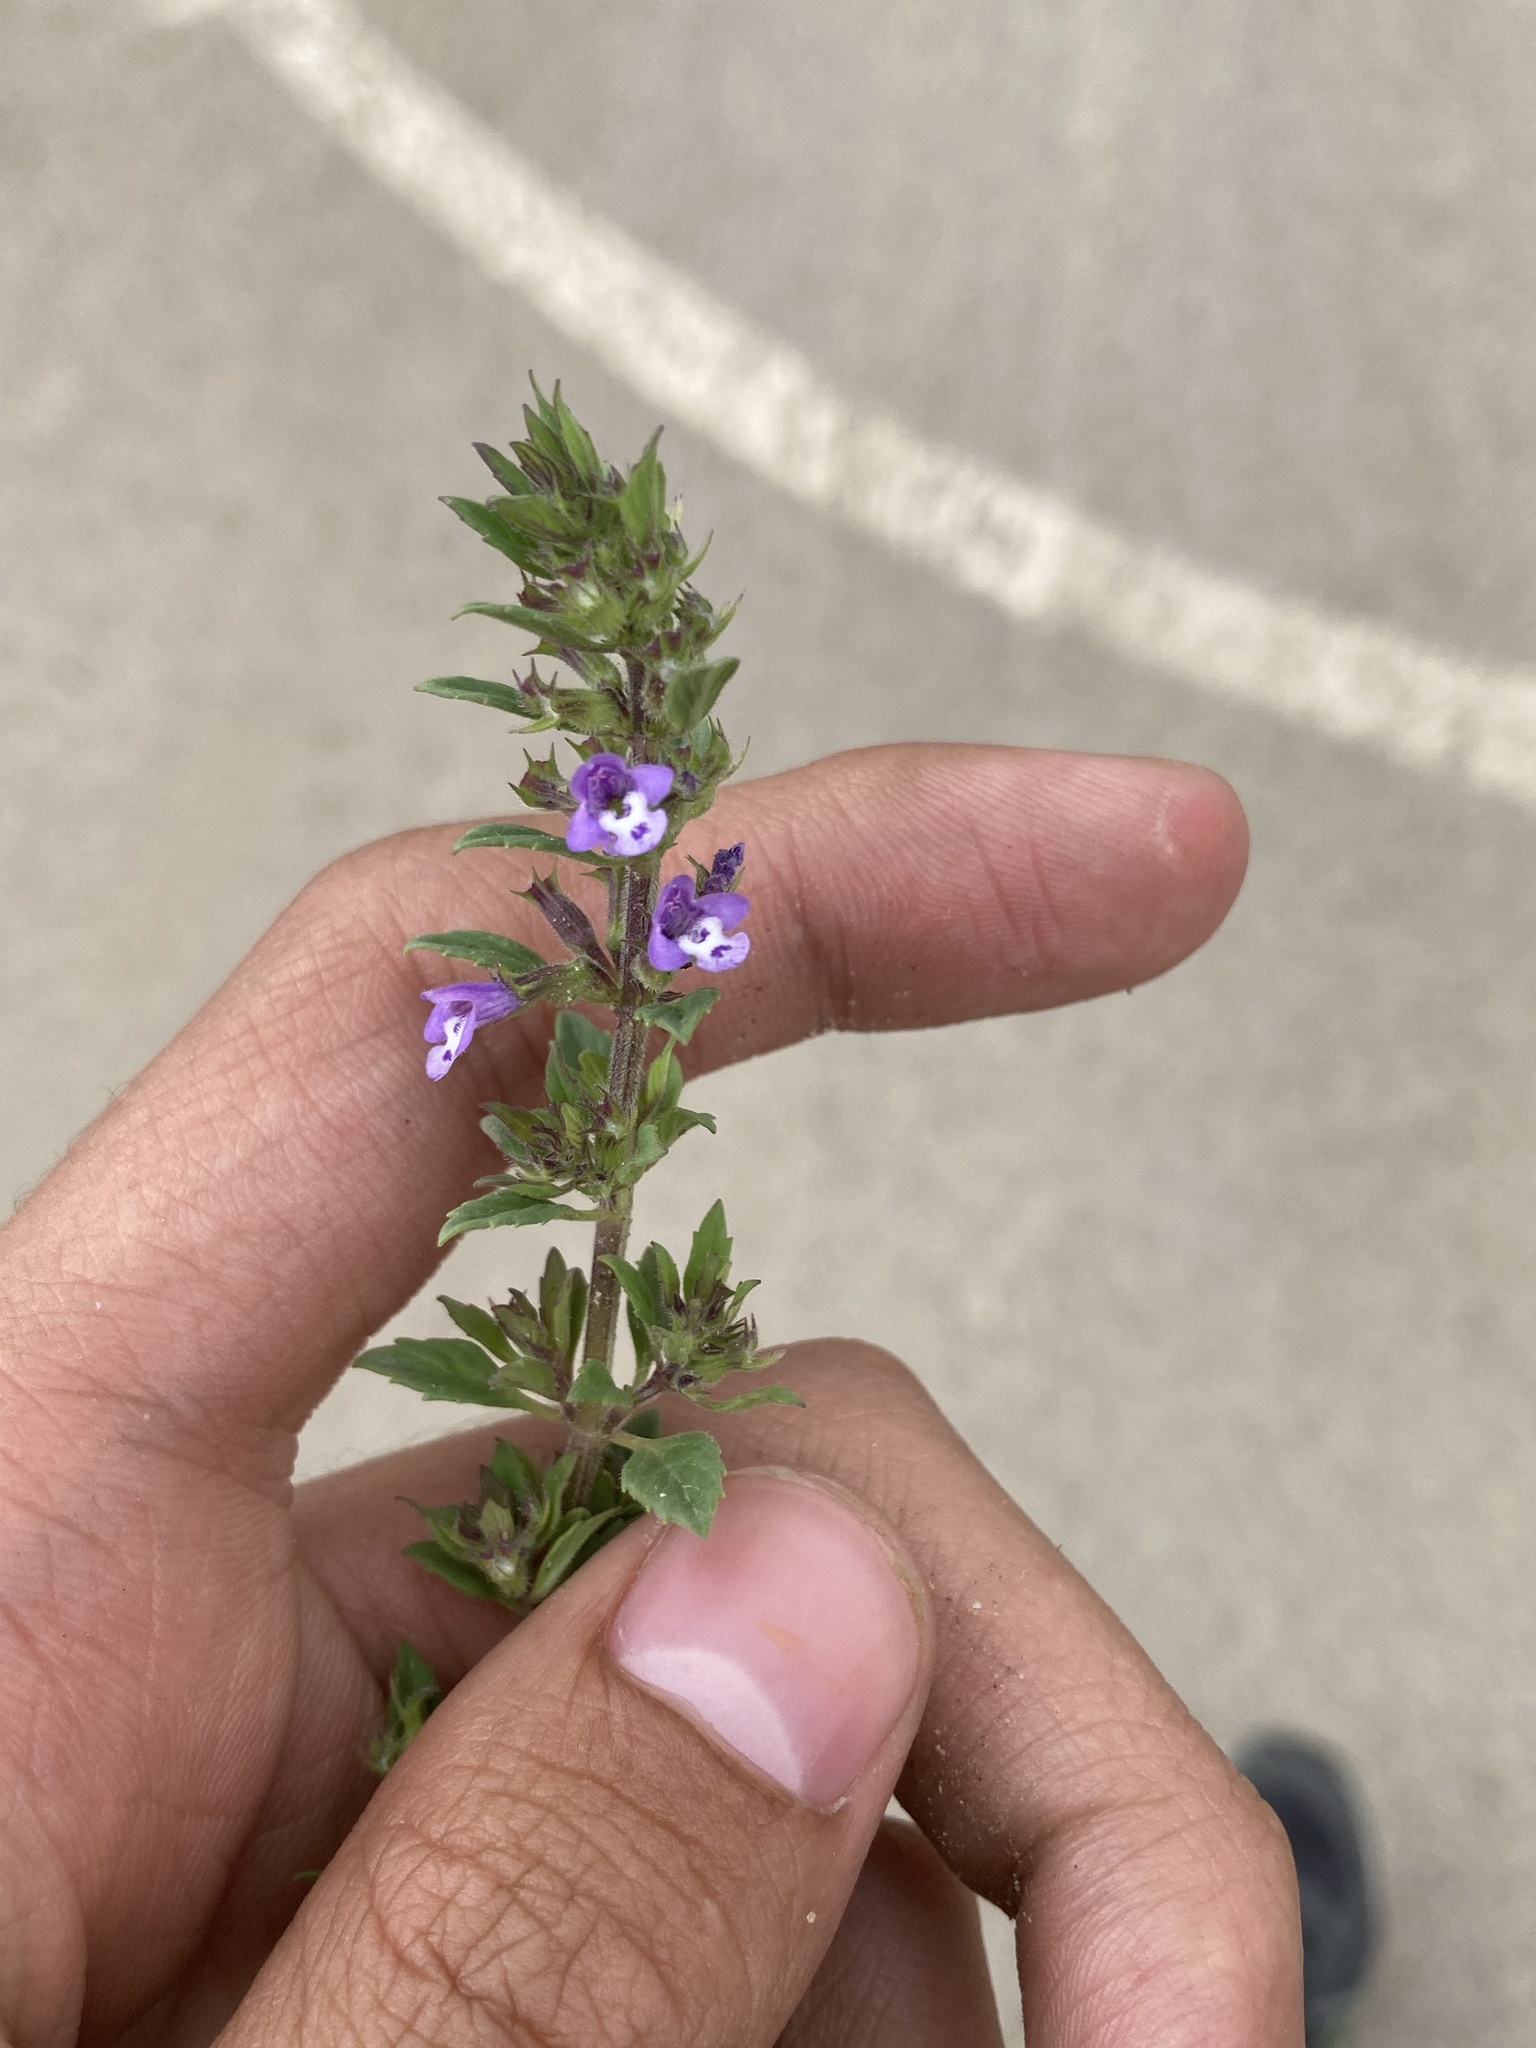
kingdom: Plantae
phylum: Tracheophyta
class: Magnoliopsida
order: Lamiales
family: Lamiaceae
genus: Clinopodium
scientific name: Clinopodium acinos
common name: Basil thyme
